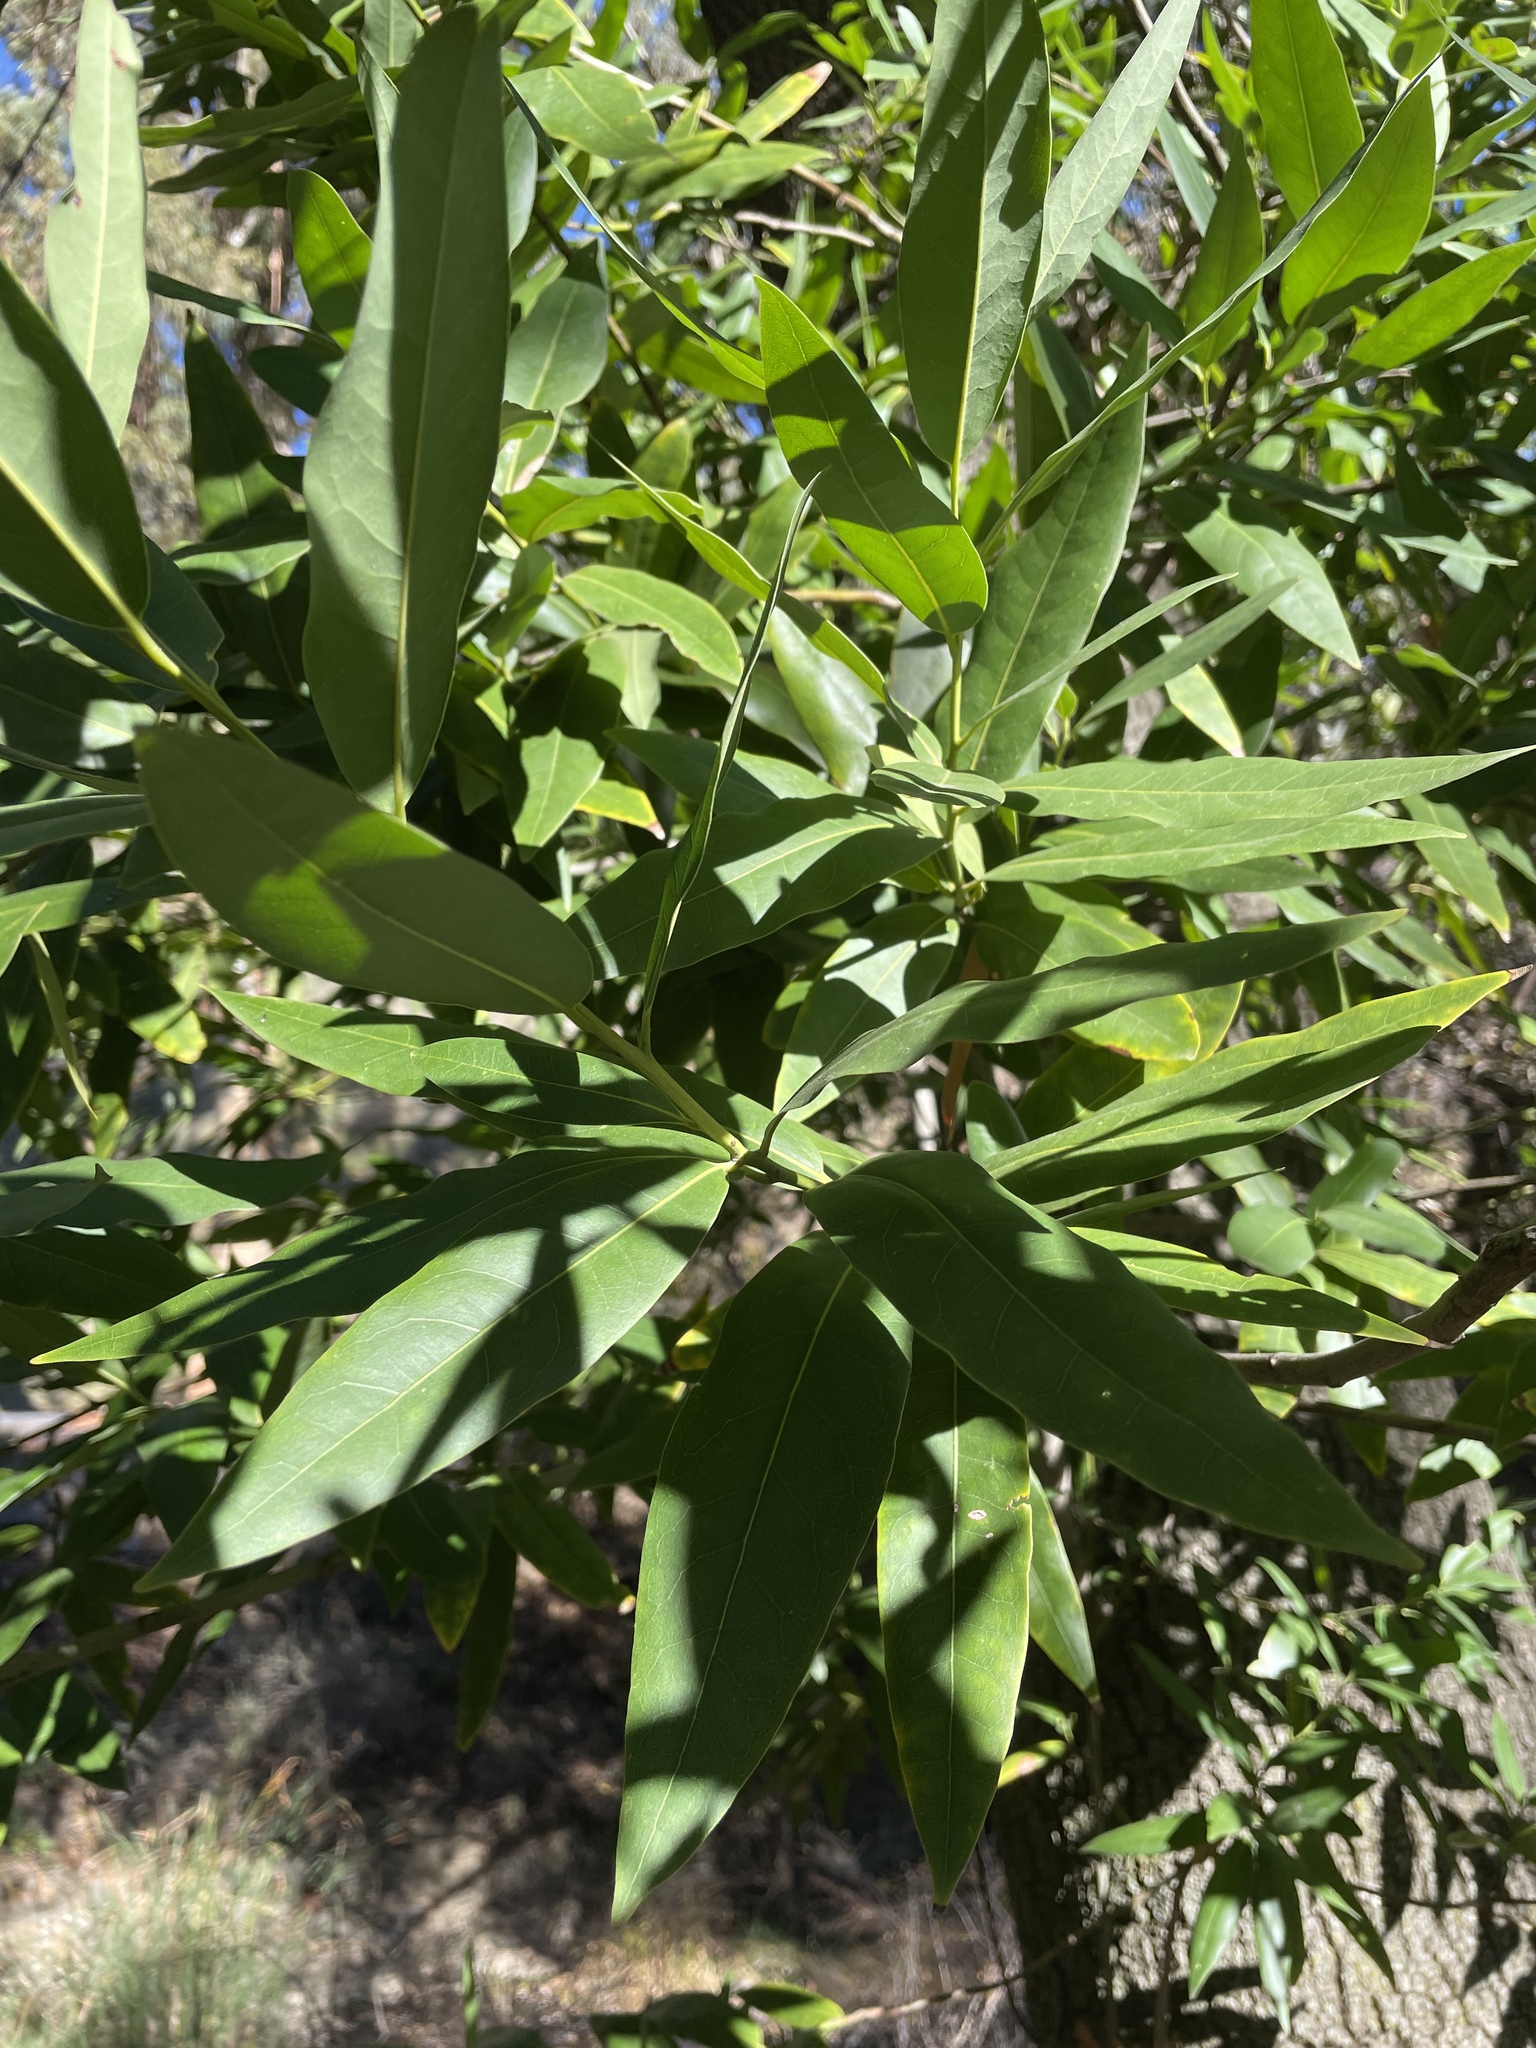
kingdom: Plantae
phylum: Tracheophyta
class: Magnoliopsida
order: Laurales
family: Lauraceae
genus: Umbellularia
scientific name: Umbellularia californica
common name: California bay
